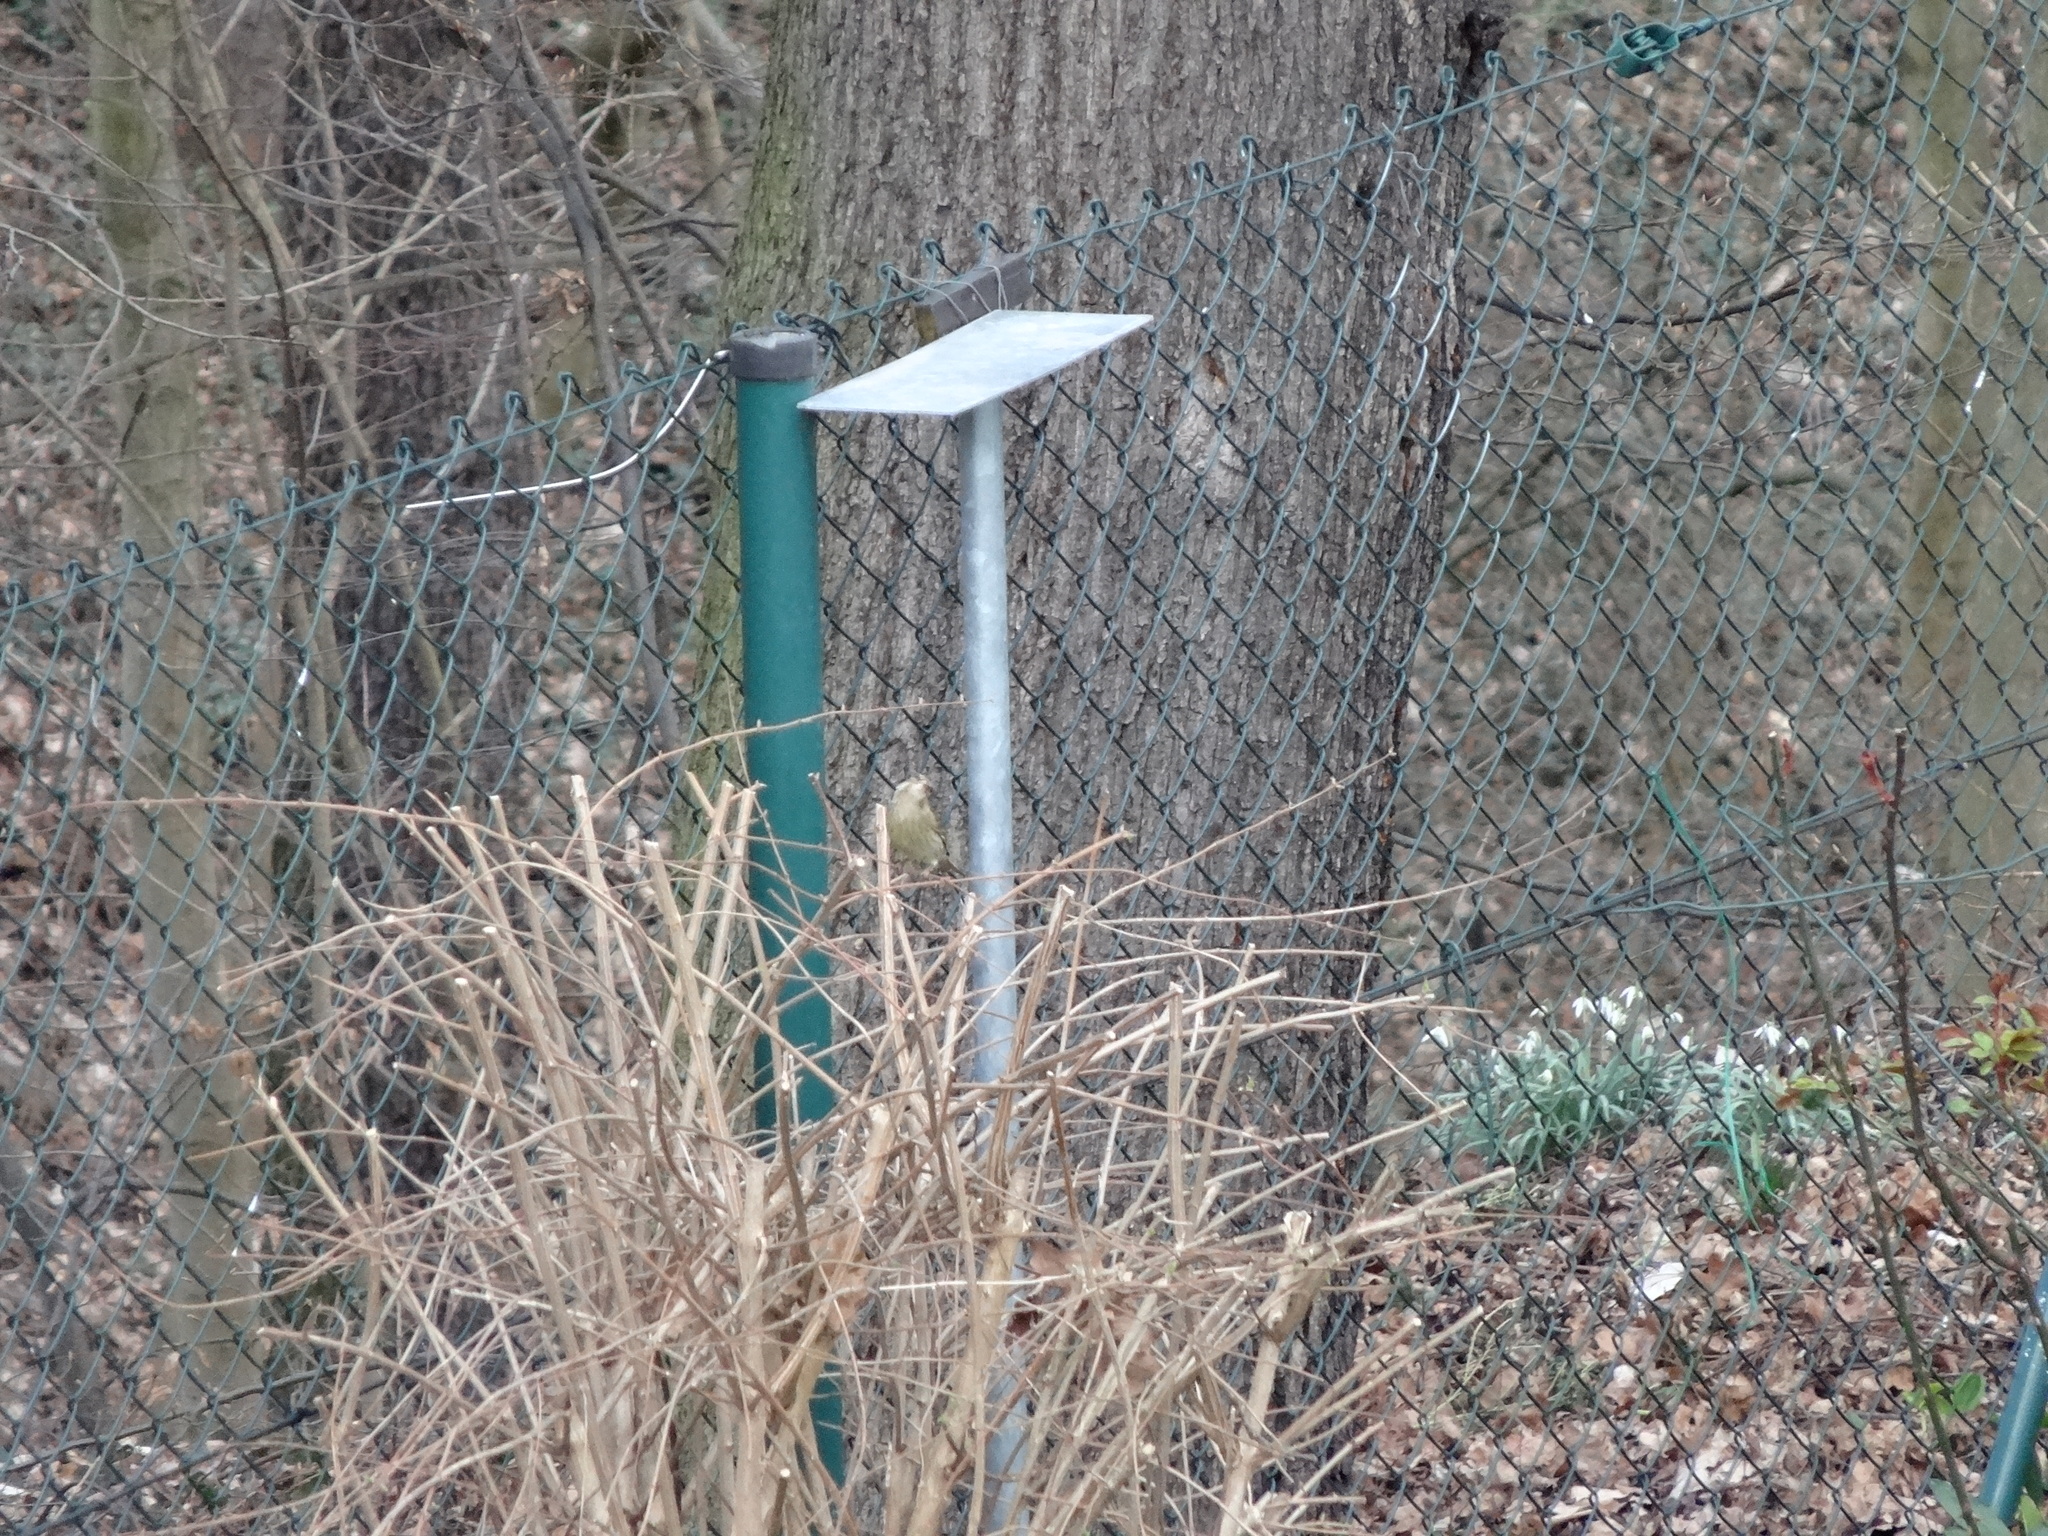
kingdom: Plantae
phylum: Tracheophyta
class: Liliopsida
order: Poales
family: Poaceae
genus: Chloris
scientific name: Chloris chloris
